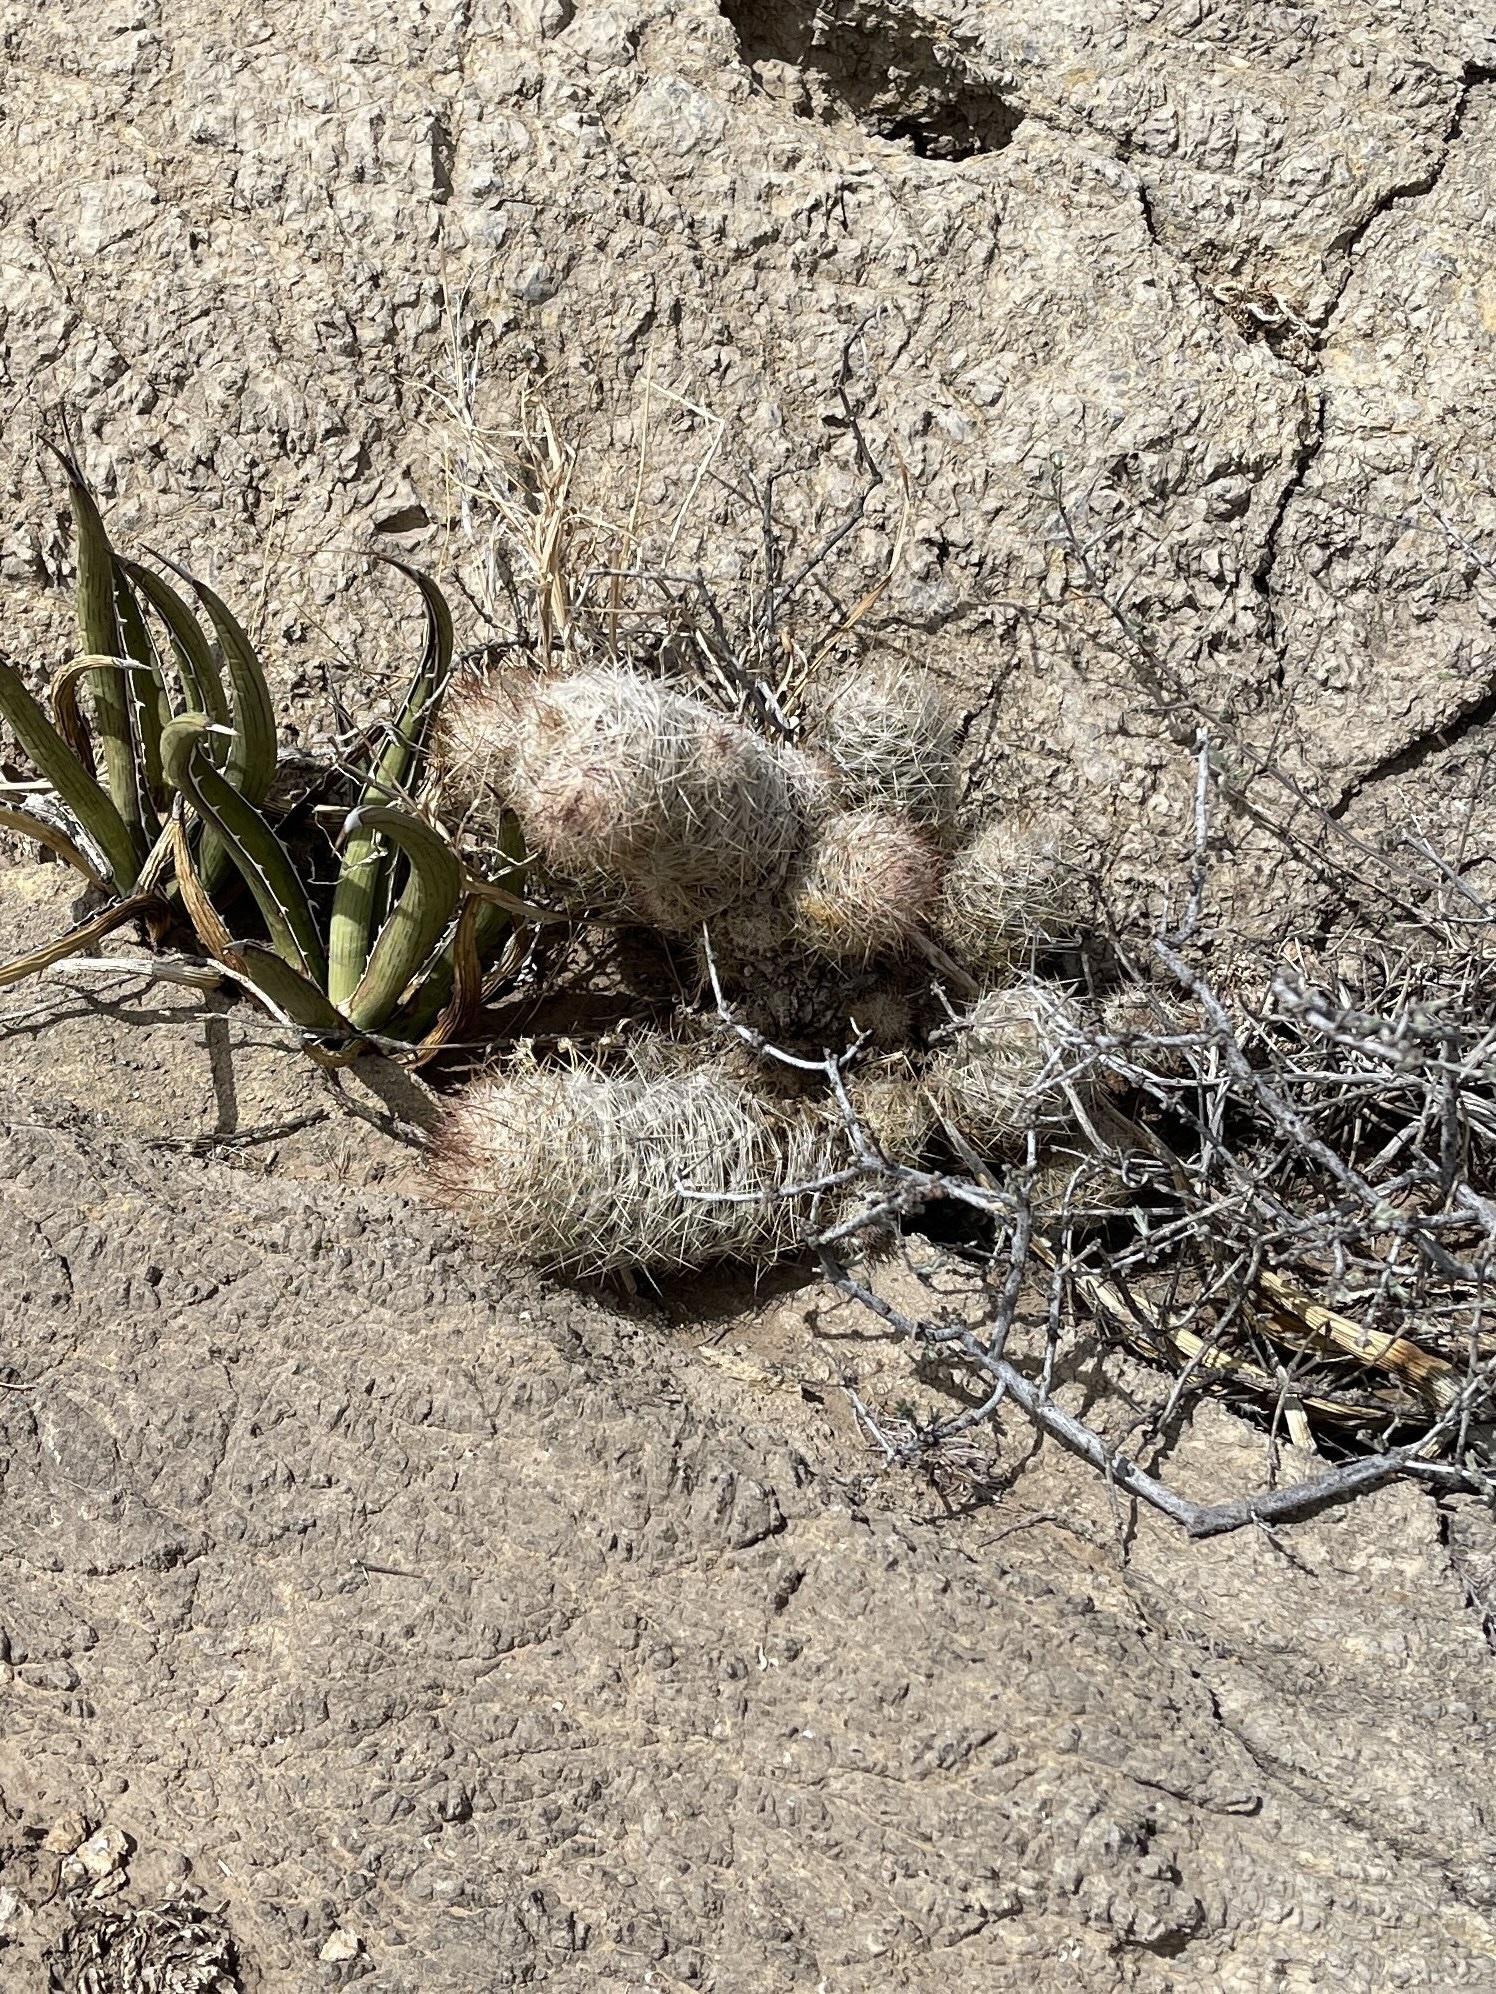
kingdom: Plantae
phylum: Tracheophyta
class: Magnoliopsida
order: Caryophyllales
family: Cactaceae
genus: Pelecyphora
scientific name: Pelecyphora tuberculosa
